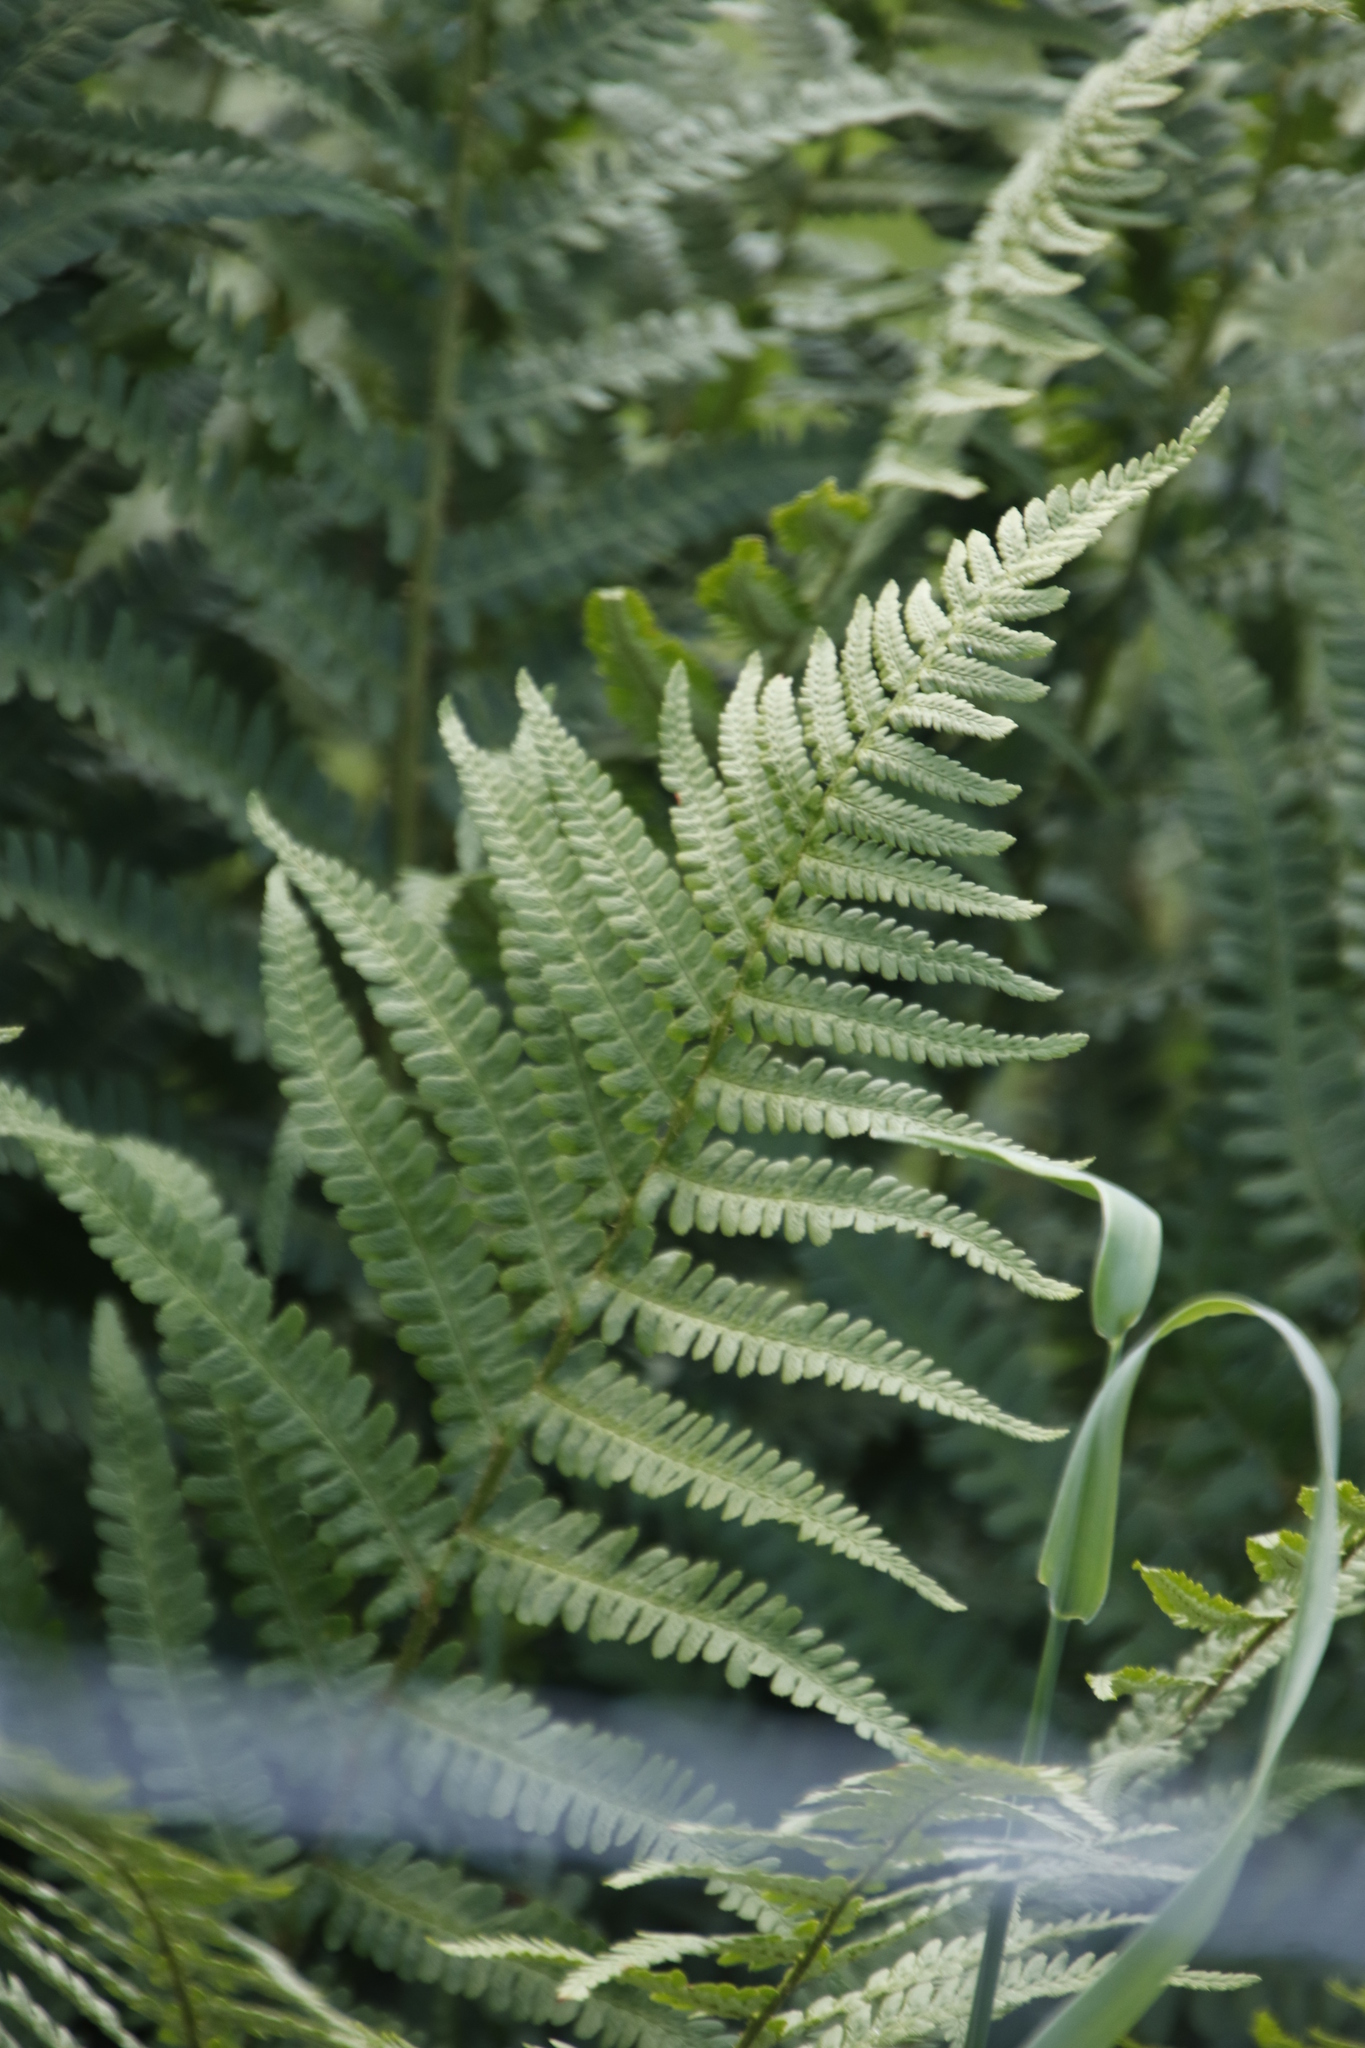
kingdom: Plantae
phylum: Tracheophyta
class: Polypodiopsida
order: Polypodiales
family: Dennstaedtiaceae
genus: Pteridium
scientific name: Pteridium aquilinum
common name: Bracken
